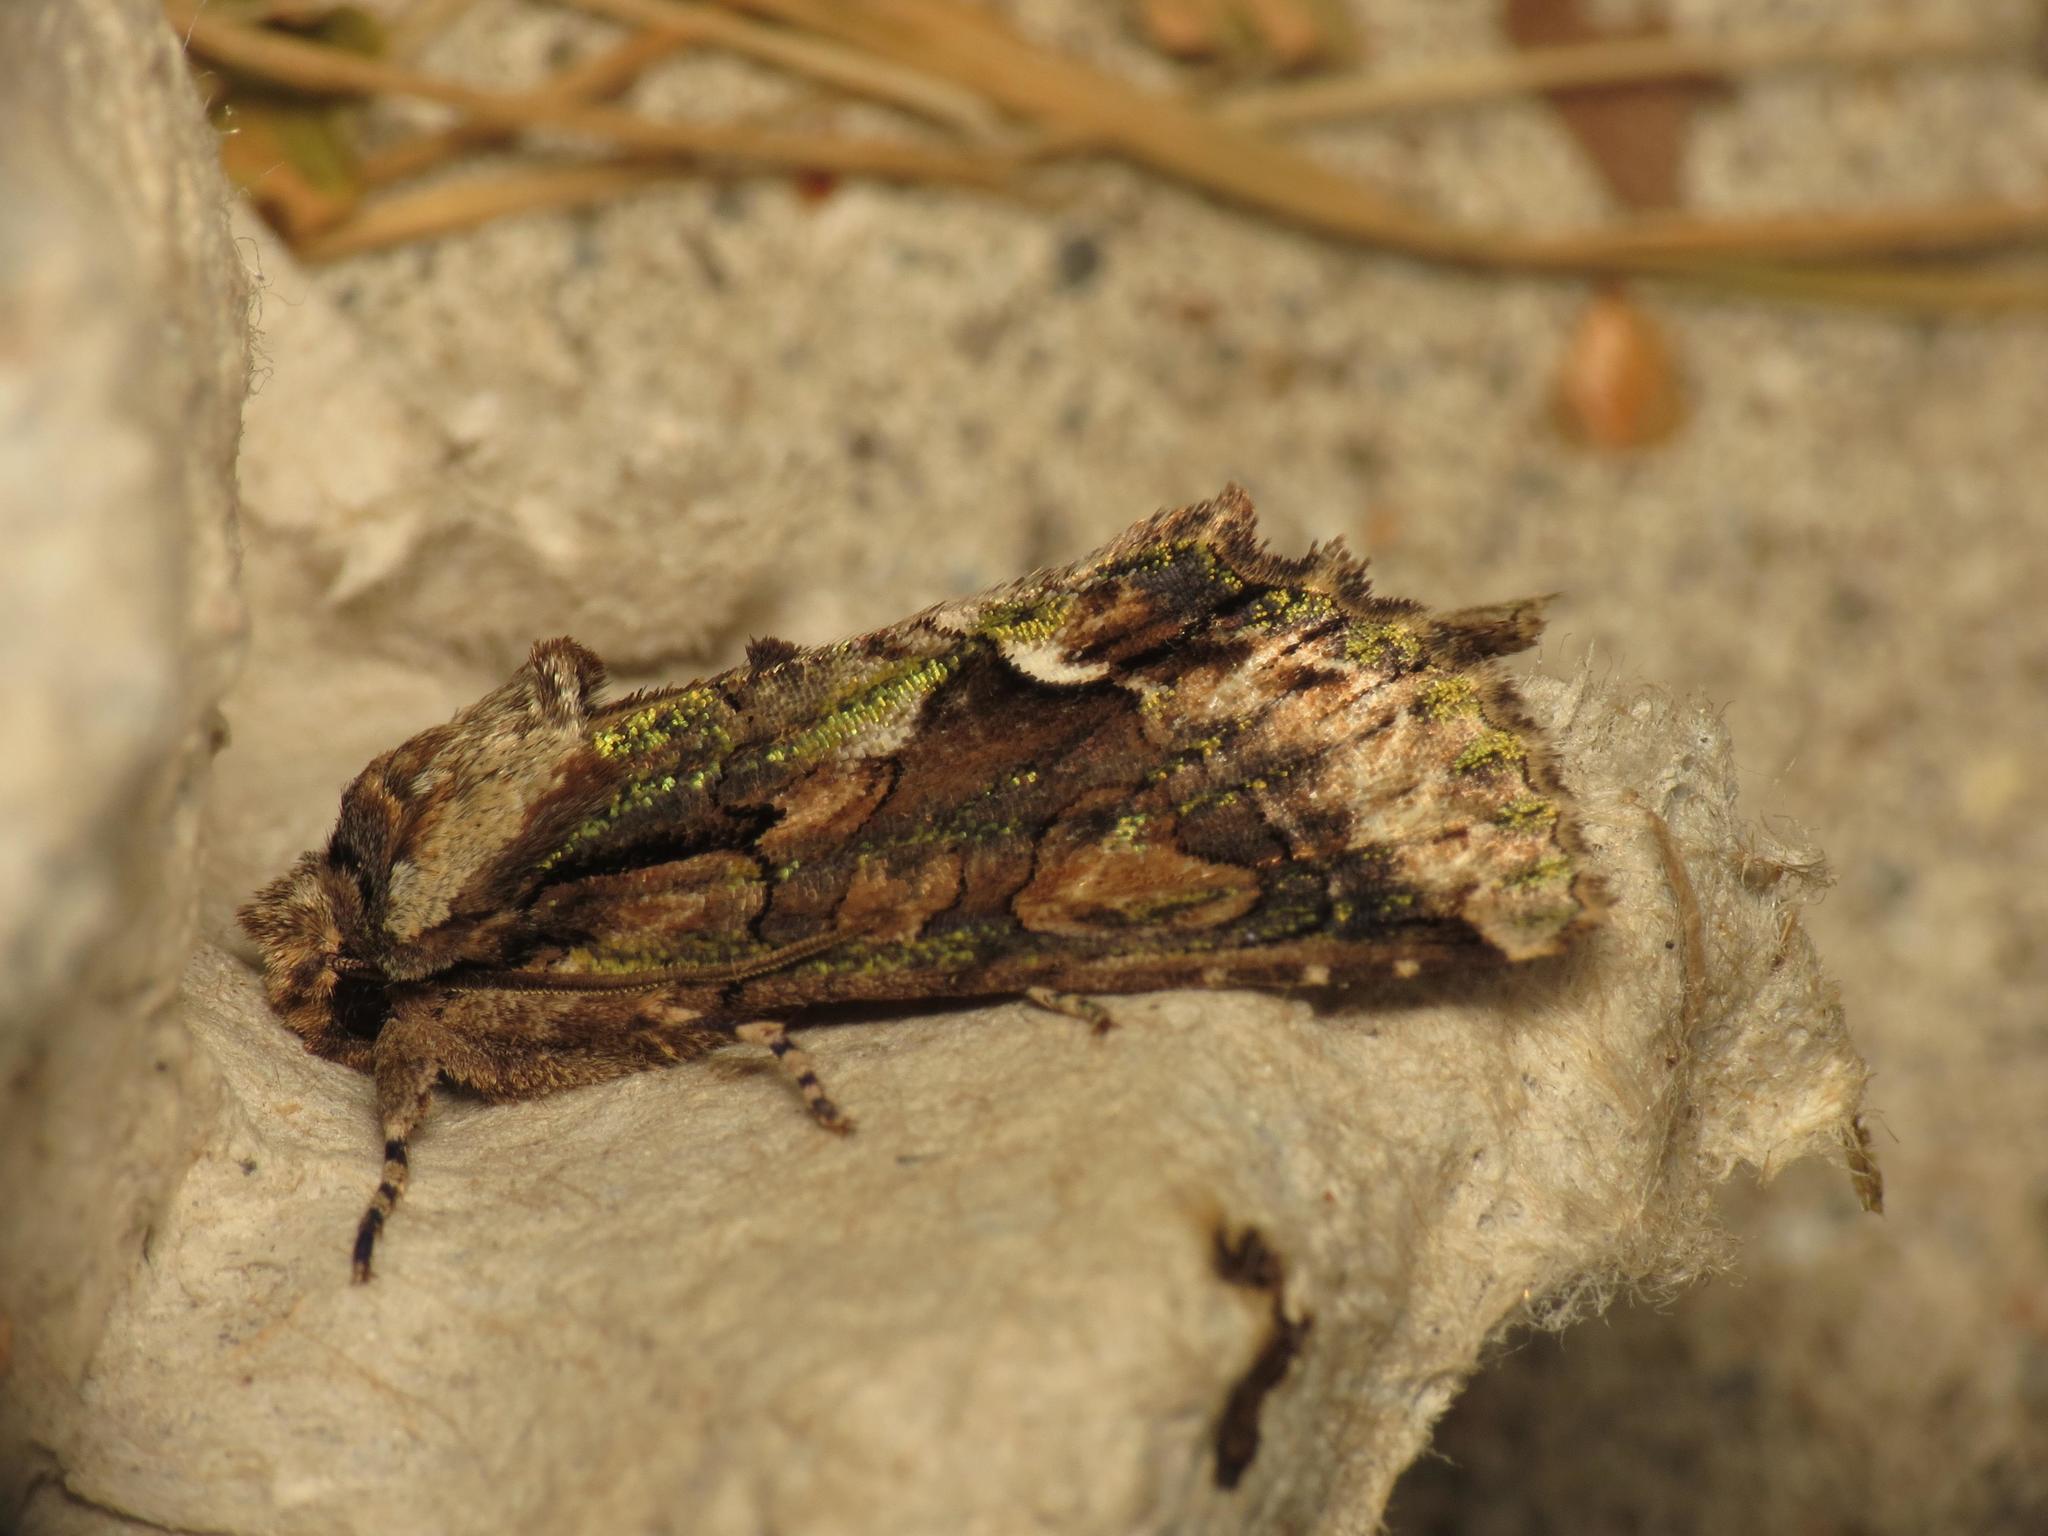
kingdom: Animalia
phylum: Arthropoda
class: Insecta
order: Lepidoptera
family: Noctuidae
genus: Allophyes
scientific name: Allophyes oxyacanthae
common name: Green-brindled crescent
